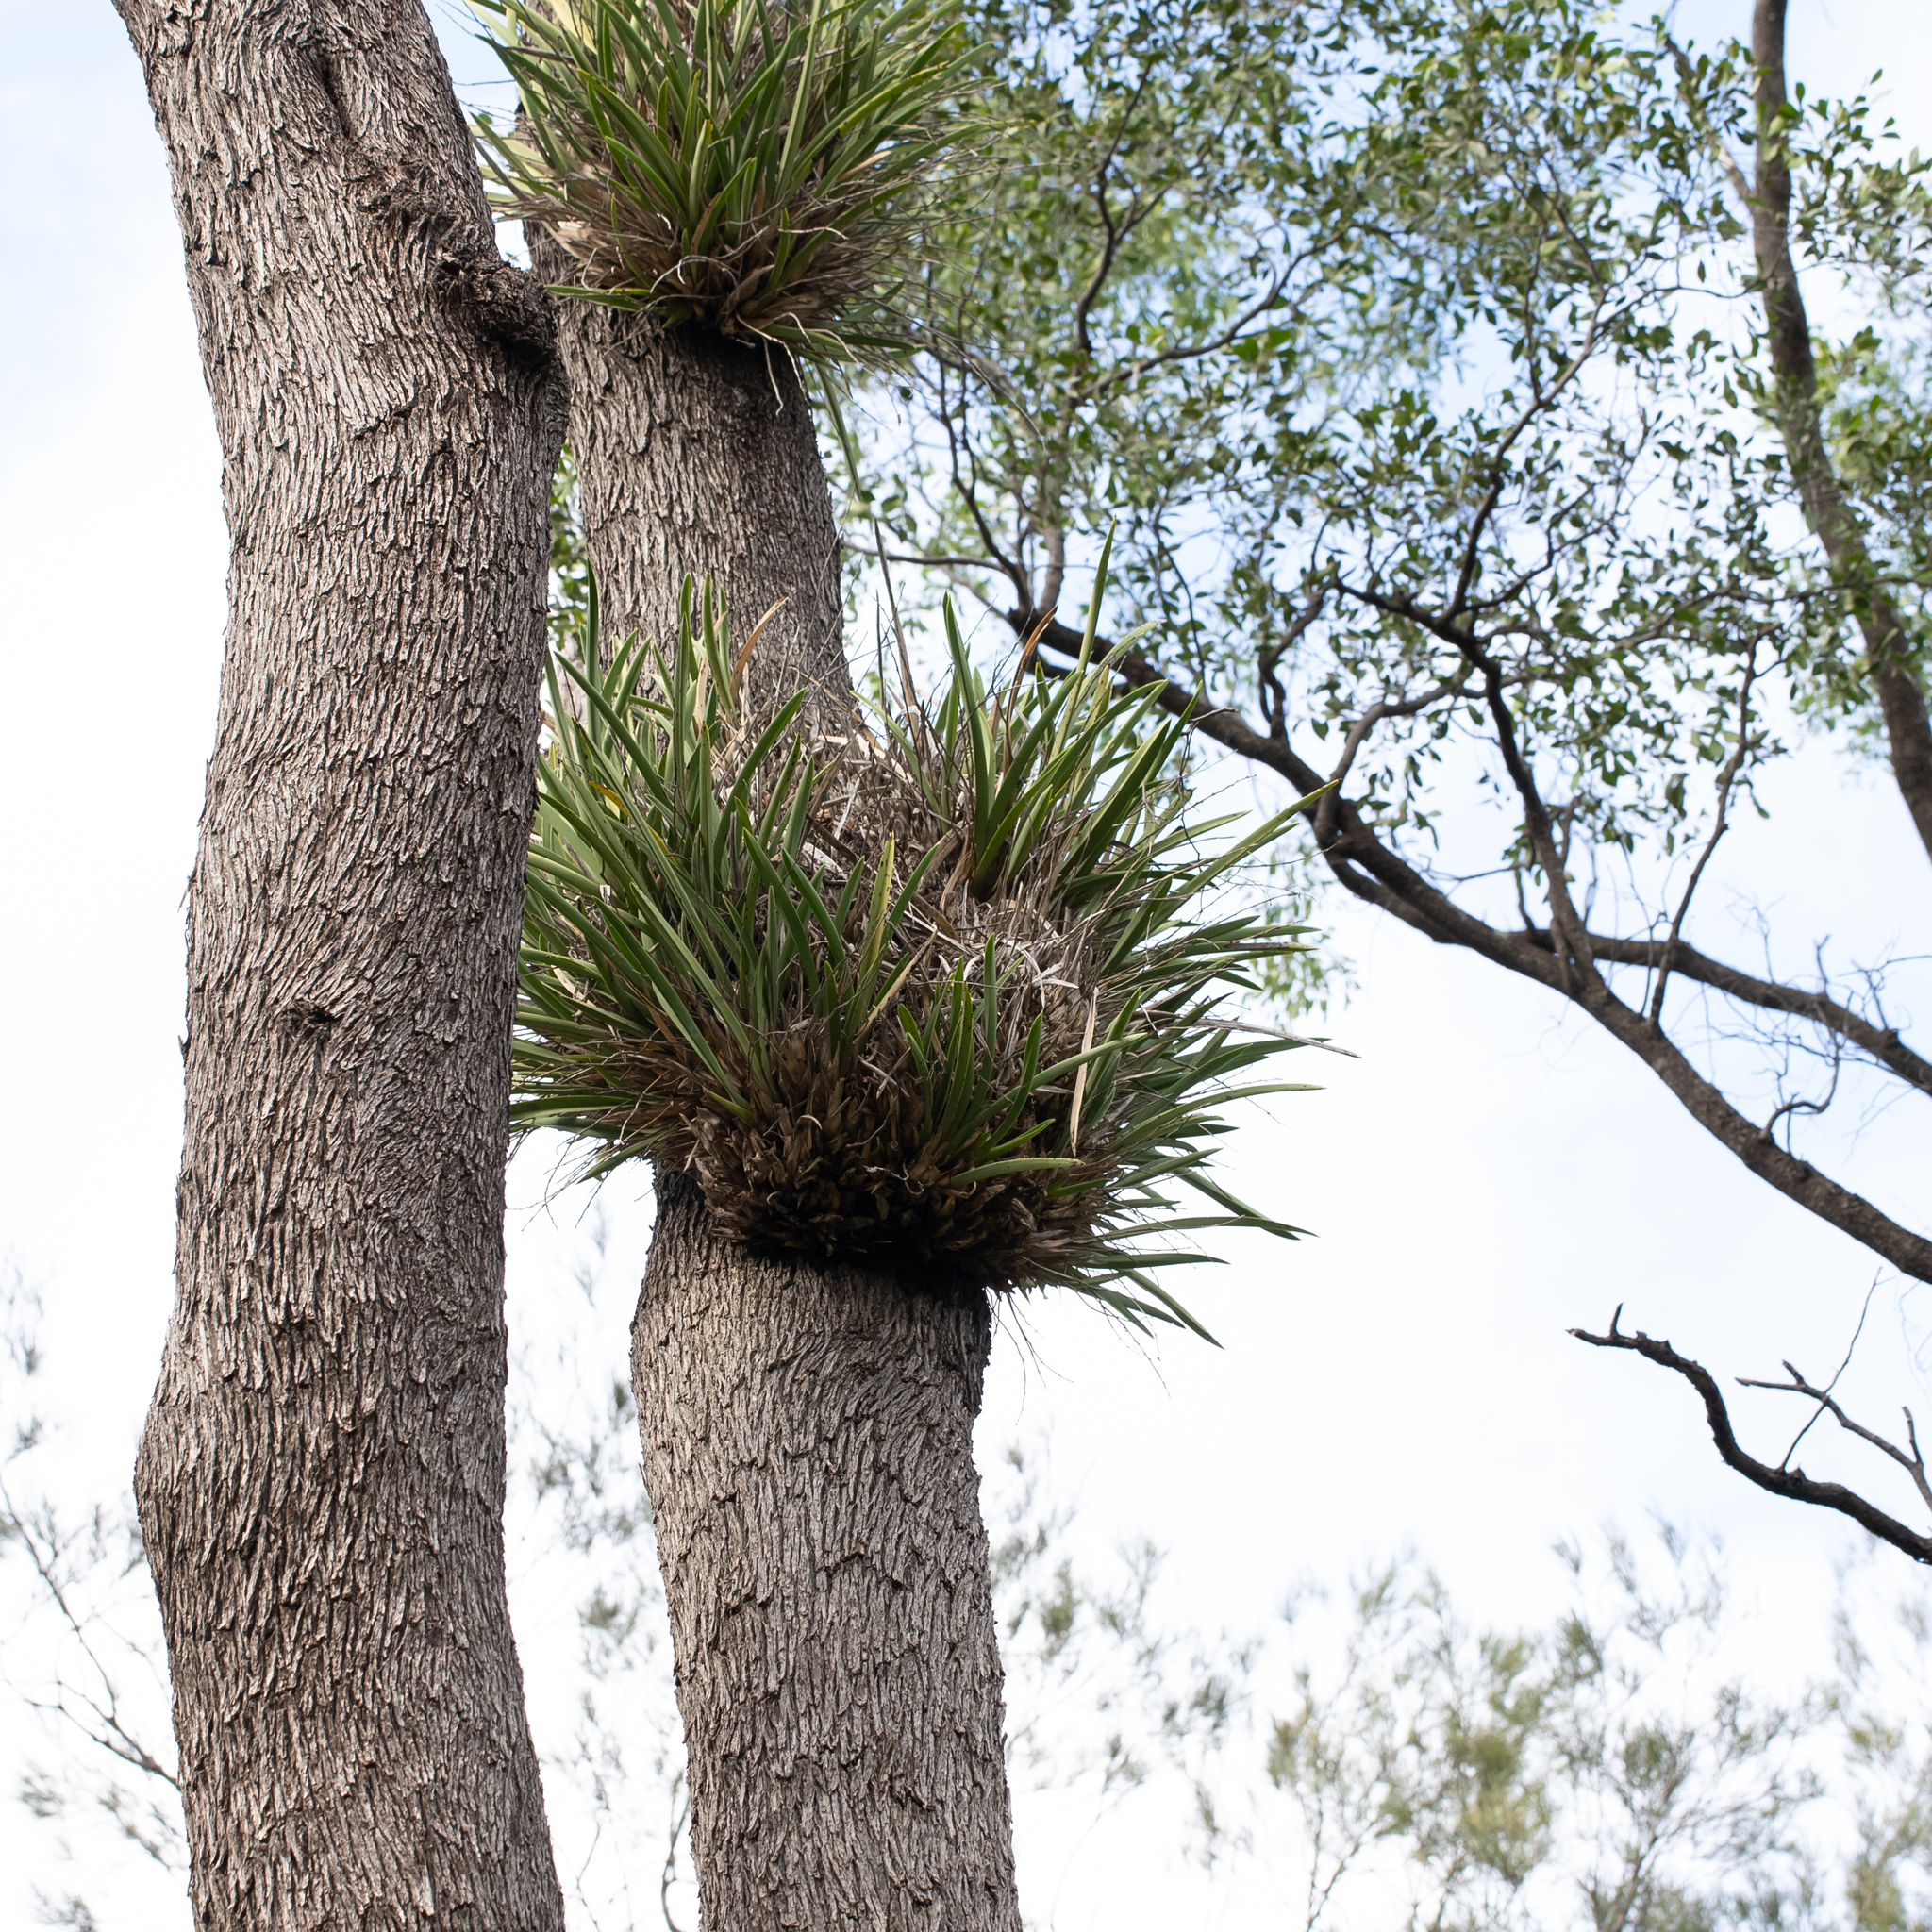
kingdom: Plantae
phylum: Tracheophyta
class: Liliopsida
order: Asparagales
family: Orchidaceae
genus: Cymbidium
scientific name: Cymbidium canaliculatum
